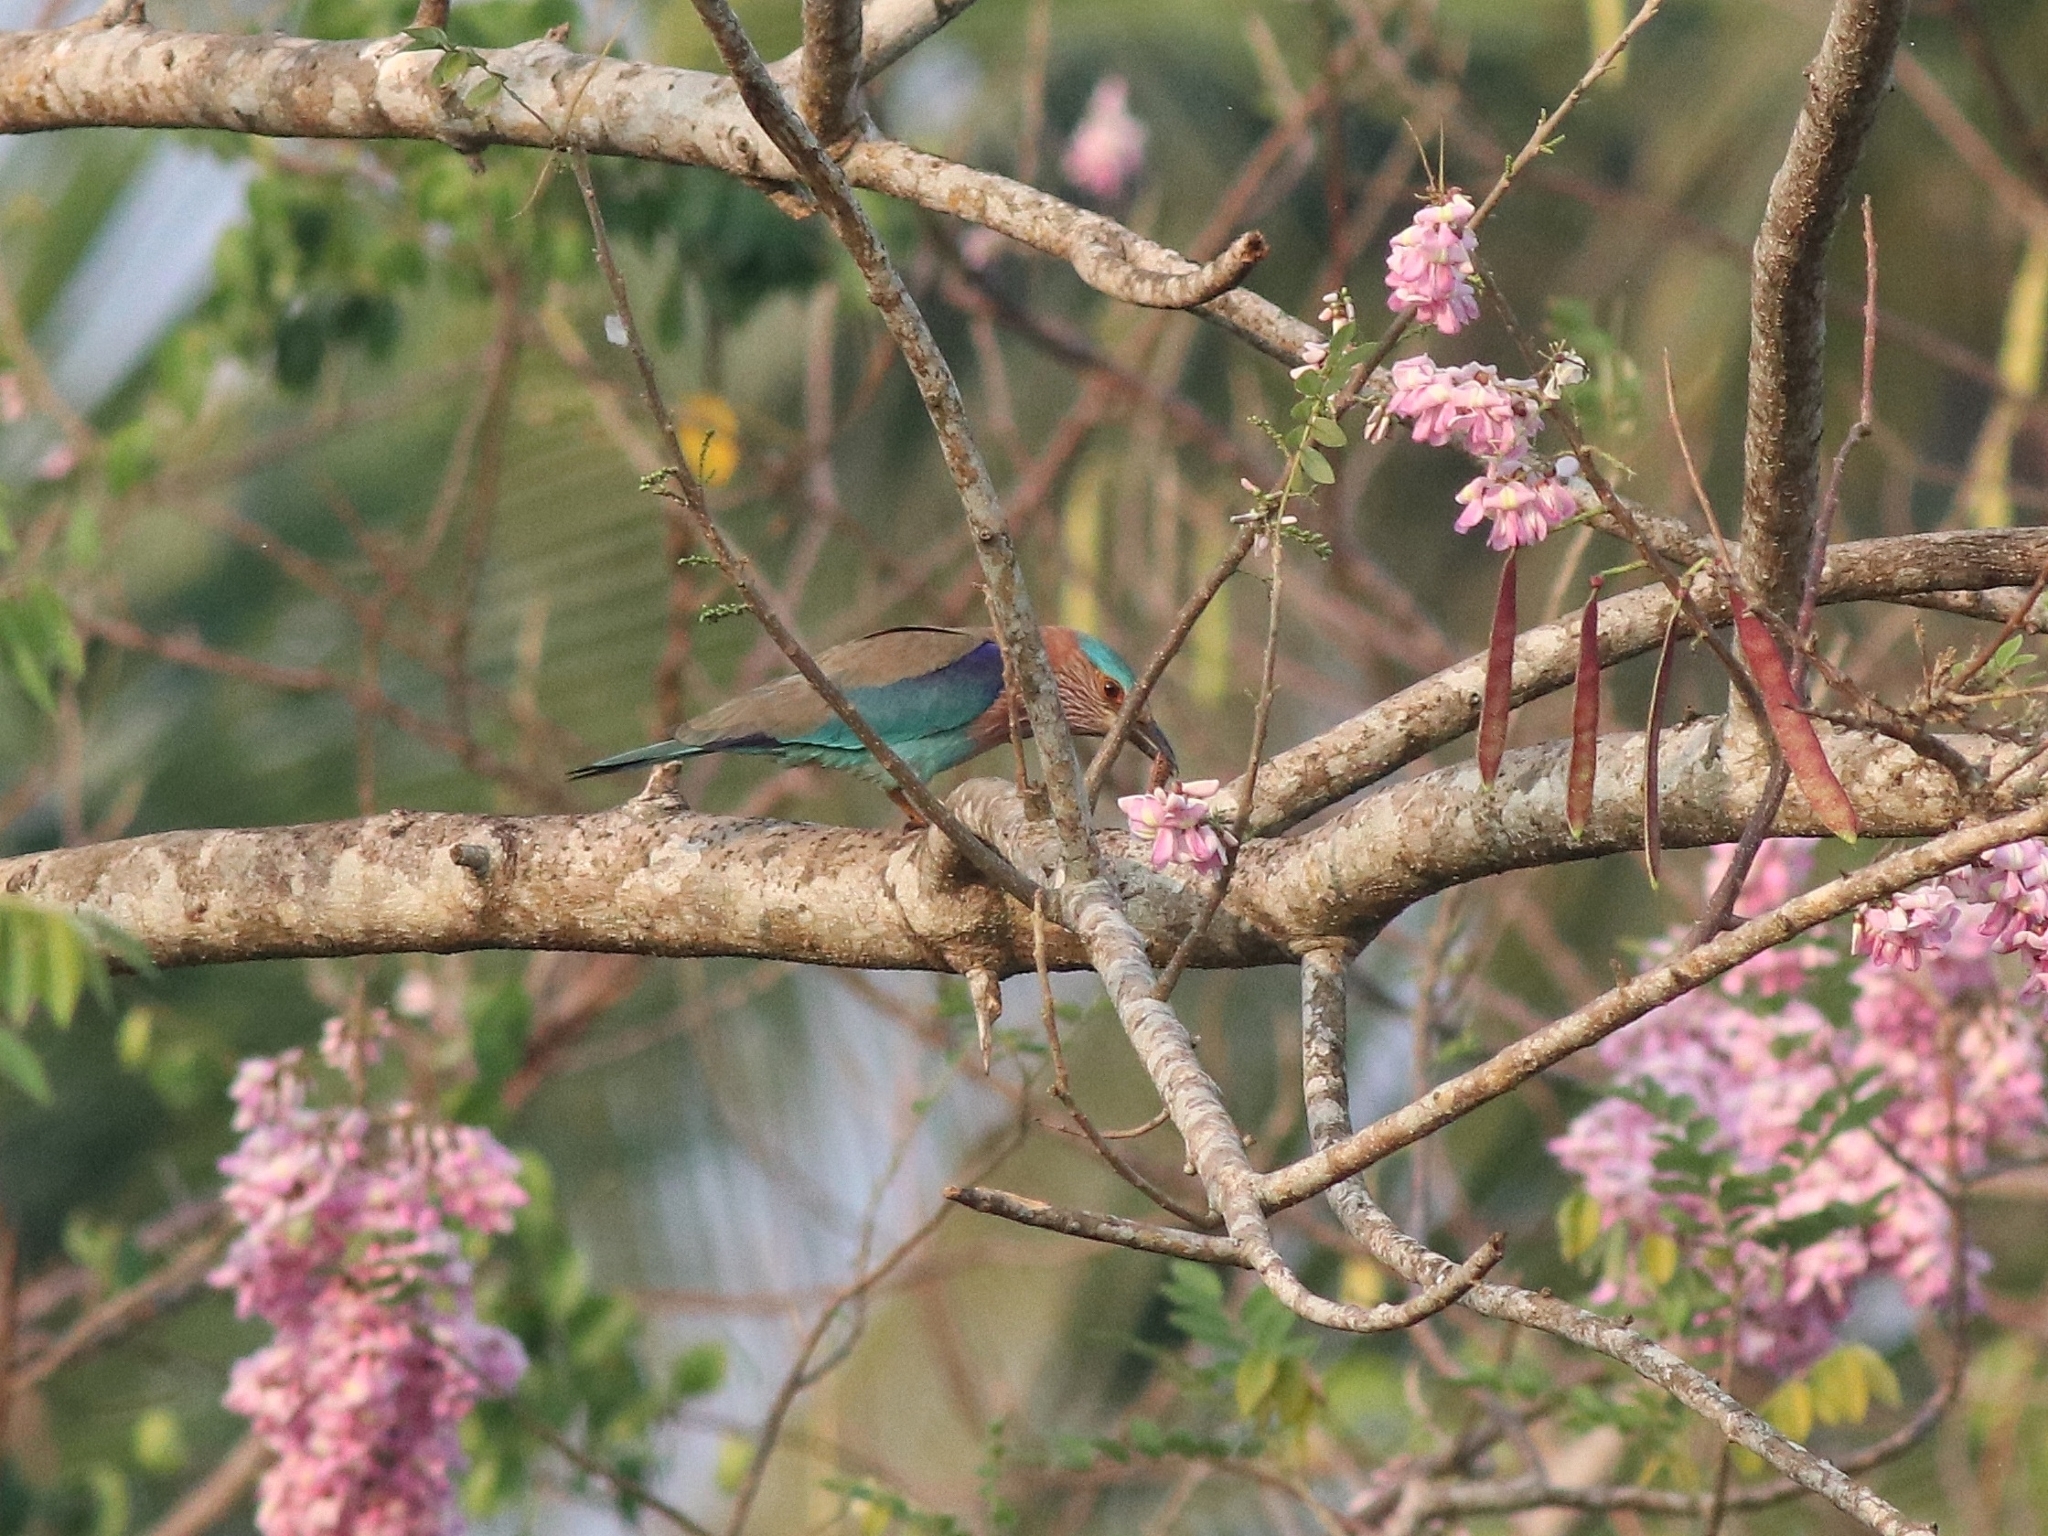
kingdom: Animalia
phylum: Chordata
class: Aves
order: Coraciiformes
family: Coraciidae
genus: Coracias
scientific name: Coracias benghalensis
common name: Indian roller
